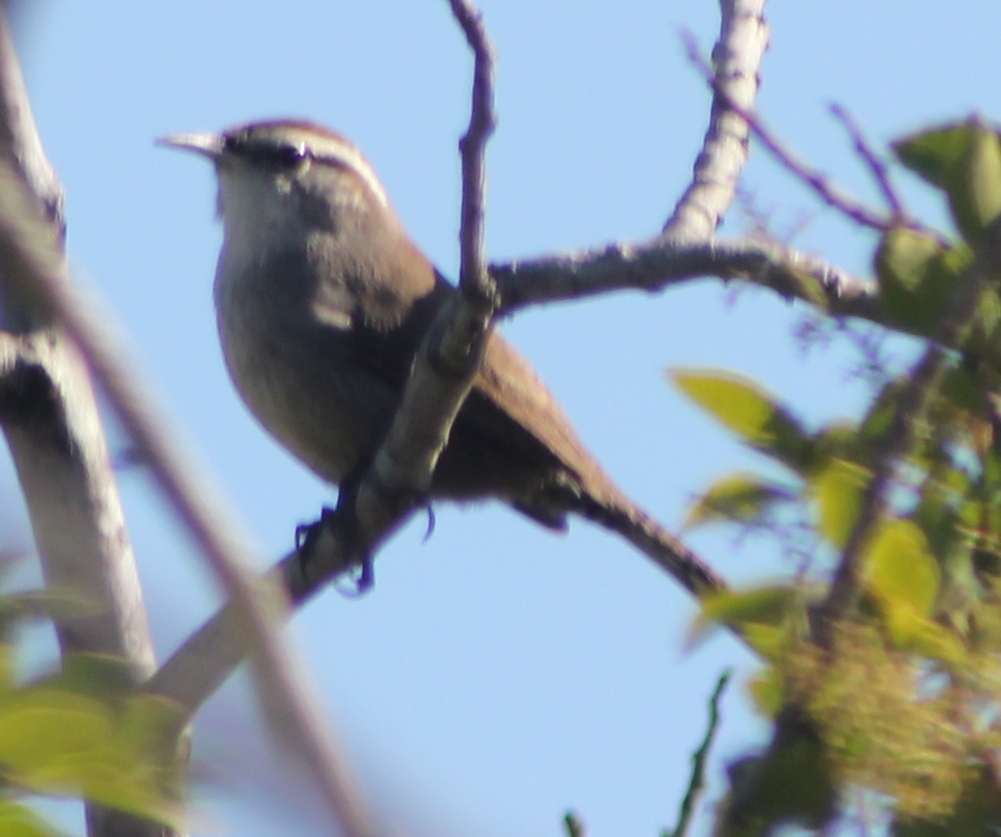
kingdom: Animalia
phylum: Chordata
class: Aves
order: Passeriformes
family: Troglodytidae
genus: Thryomanes
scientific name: Thryomanes bewickii
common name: Bewick's wren
